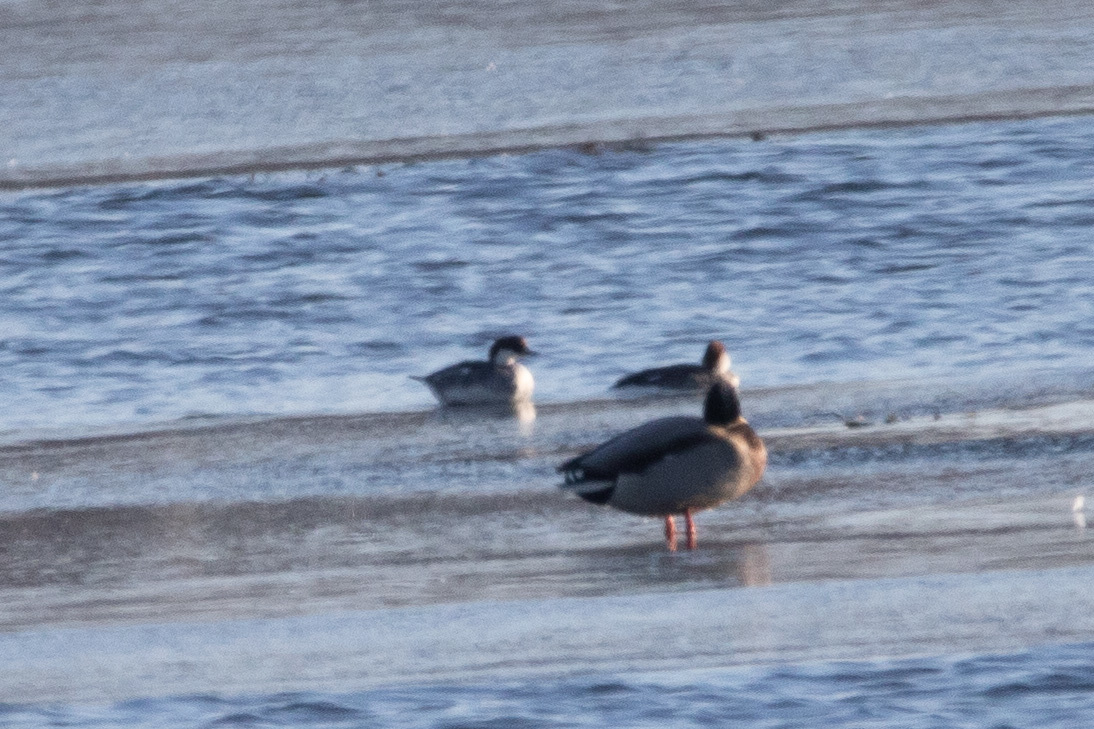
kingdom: Animalia
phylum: Chordata
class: Aves
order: Anseriformes
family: Anatidae
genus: Mergellus
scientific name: Mergellus albellus
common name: Smew
